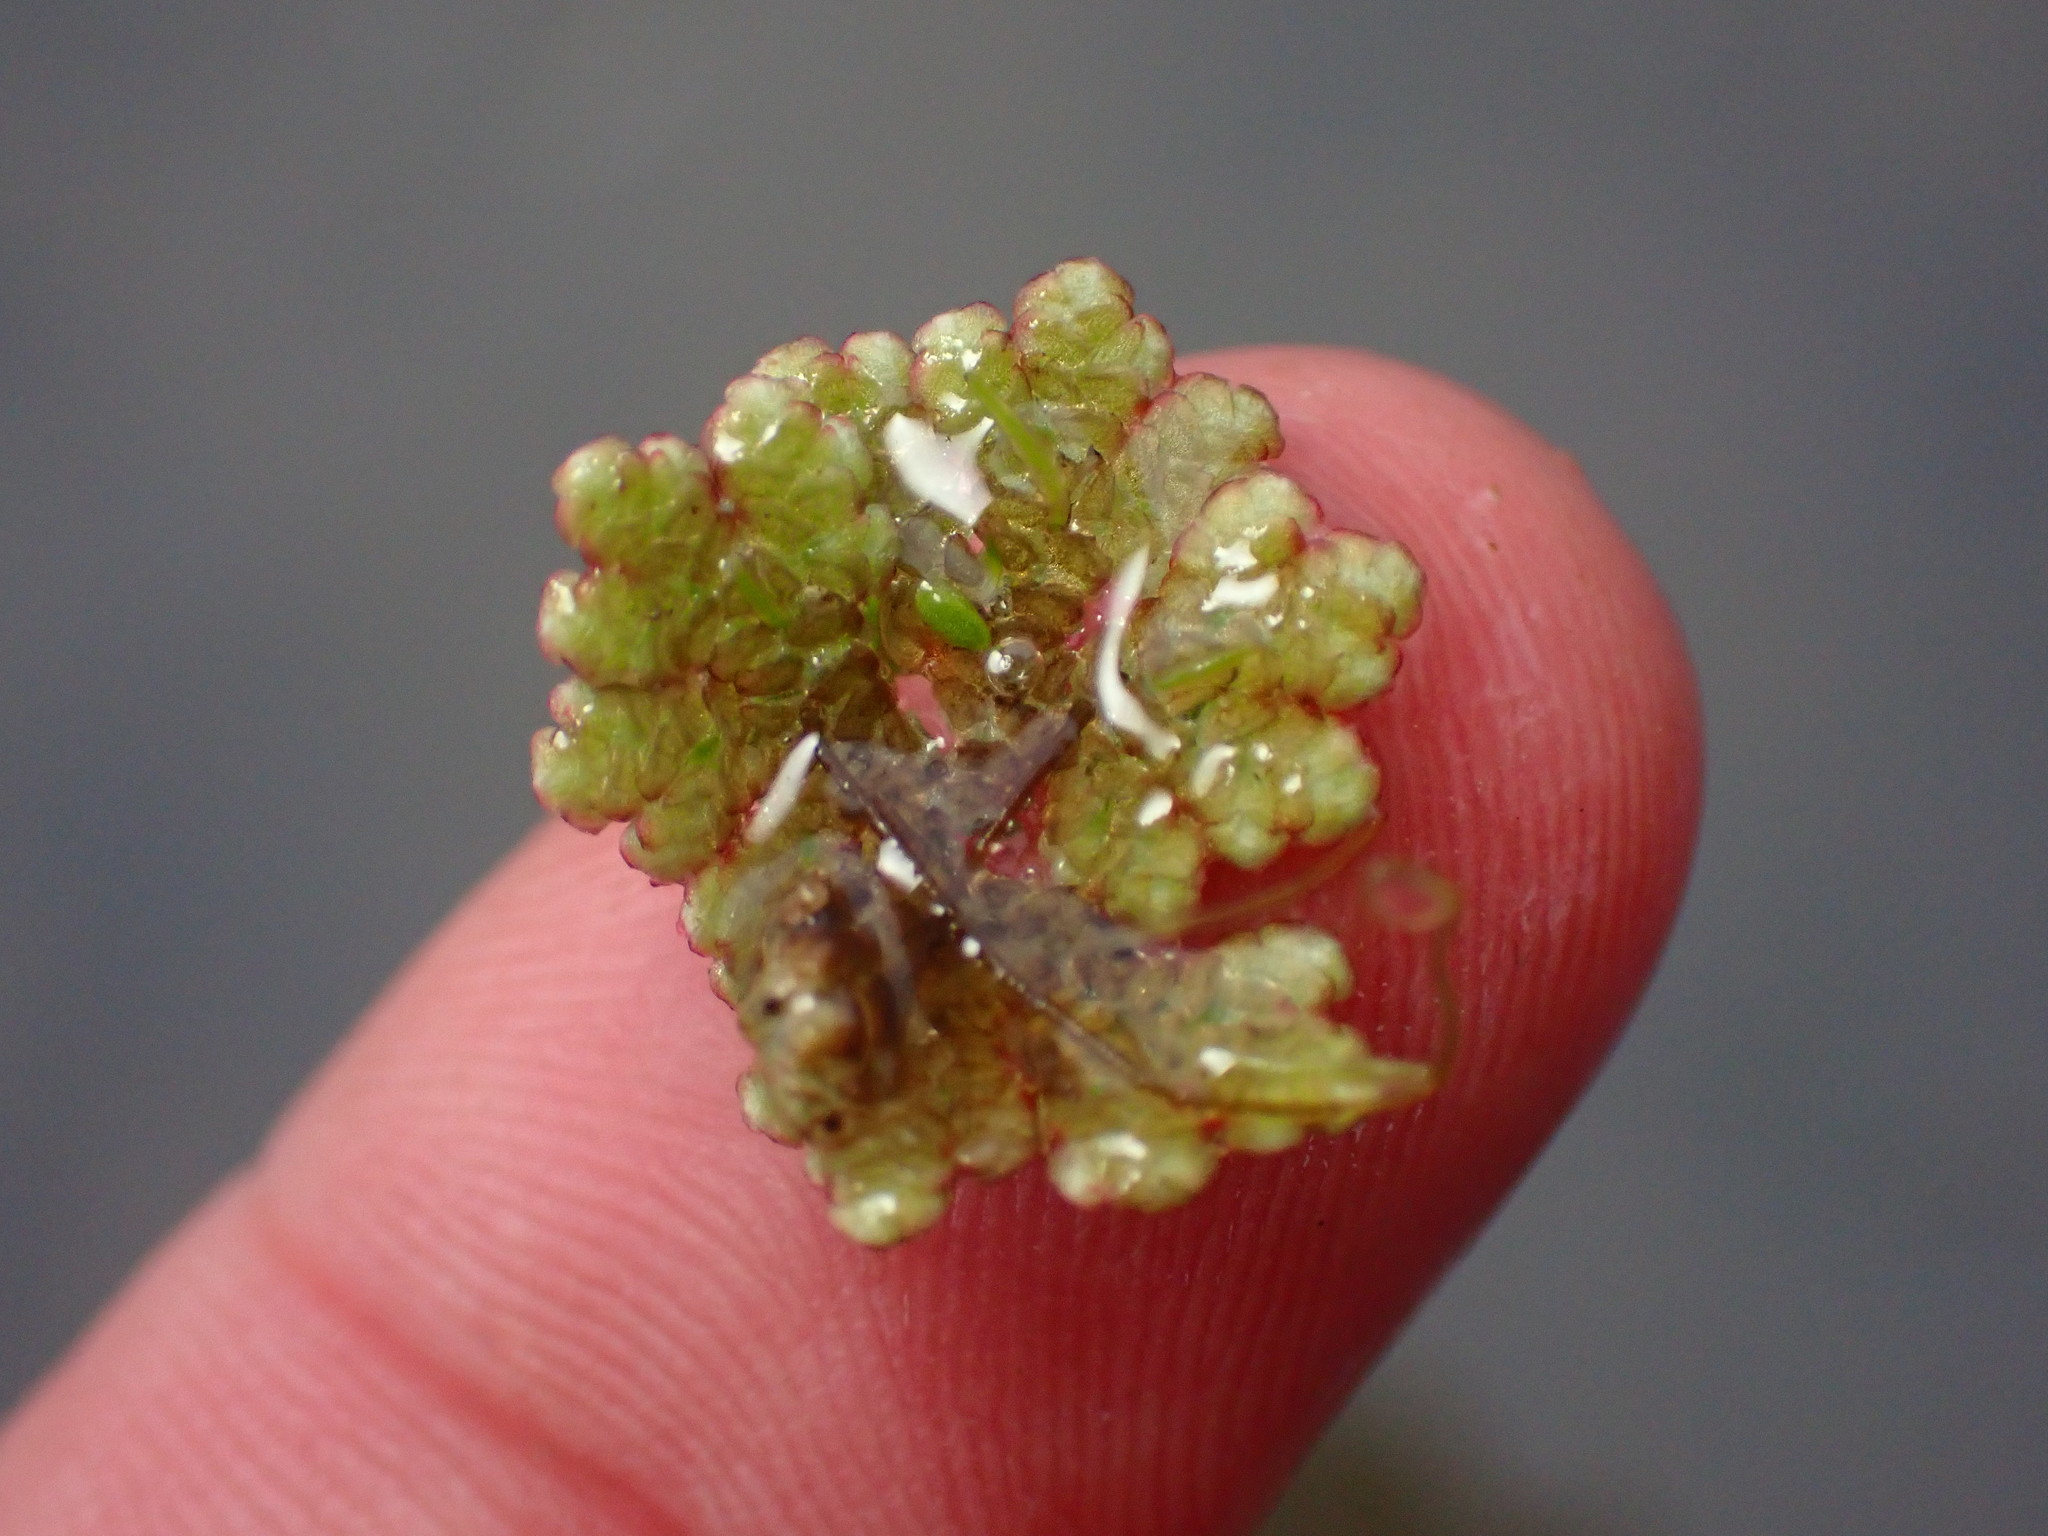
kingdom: Plantae
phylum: Tracheophyta
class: Polypodiopsida
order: Salviniales
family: Salviniaceae
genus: Azolla
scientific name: Azolla filiculoides
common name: Water fern
